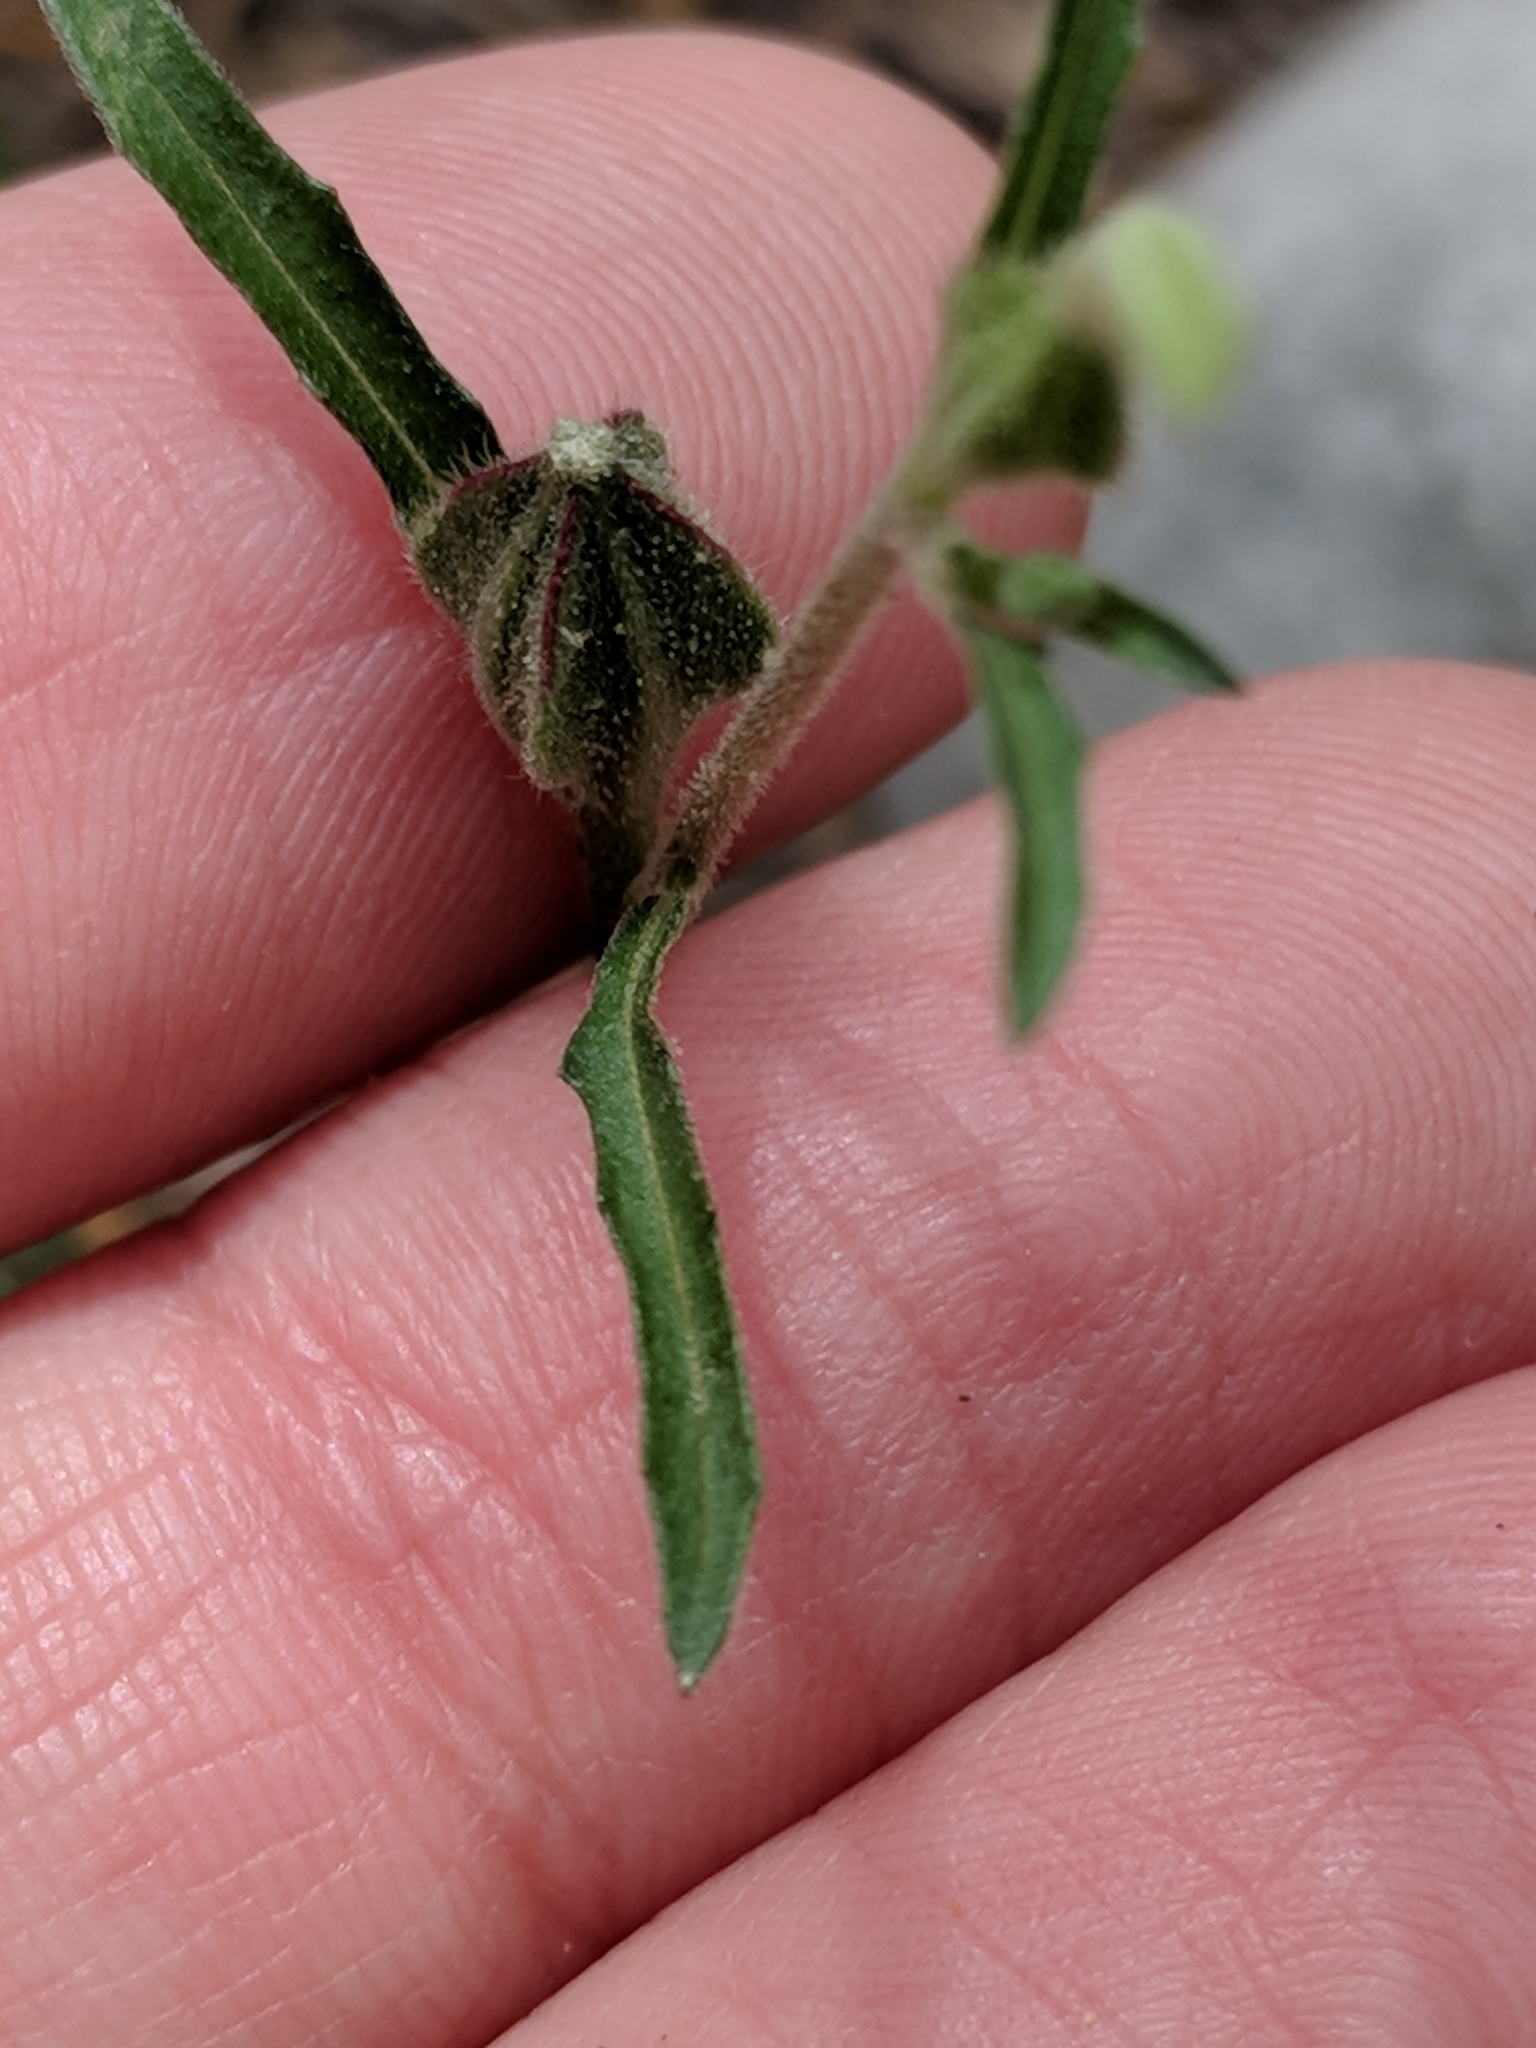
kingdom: Plantae
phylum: Tracheophyta
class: Magnoliopsida
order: Myrtales
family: Onagraceae
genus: Oenothera
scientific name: Oenothera kunthiana
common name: Kunth's evening-primrose
